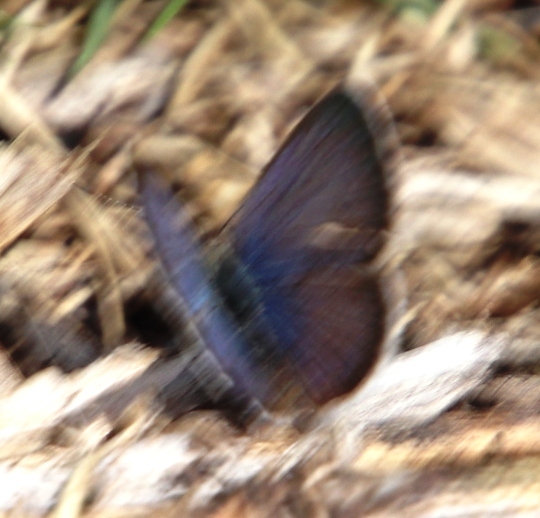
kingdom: Animalia
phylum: Arthropoda
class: Insecta
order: Lepidoptera
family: Lycaenidae
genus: Zizeeria
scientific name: Zizeeria knysna
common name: African grass blue
